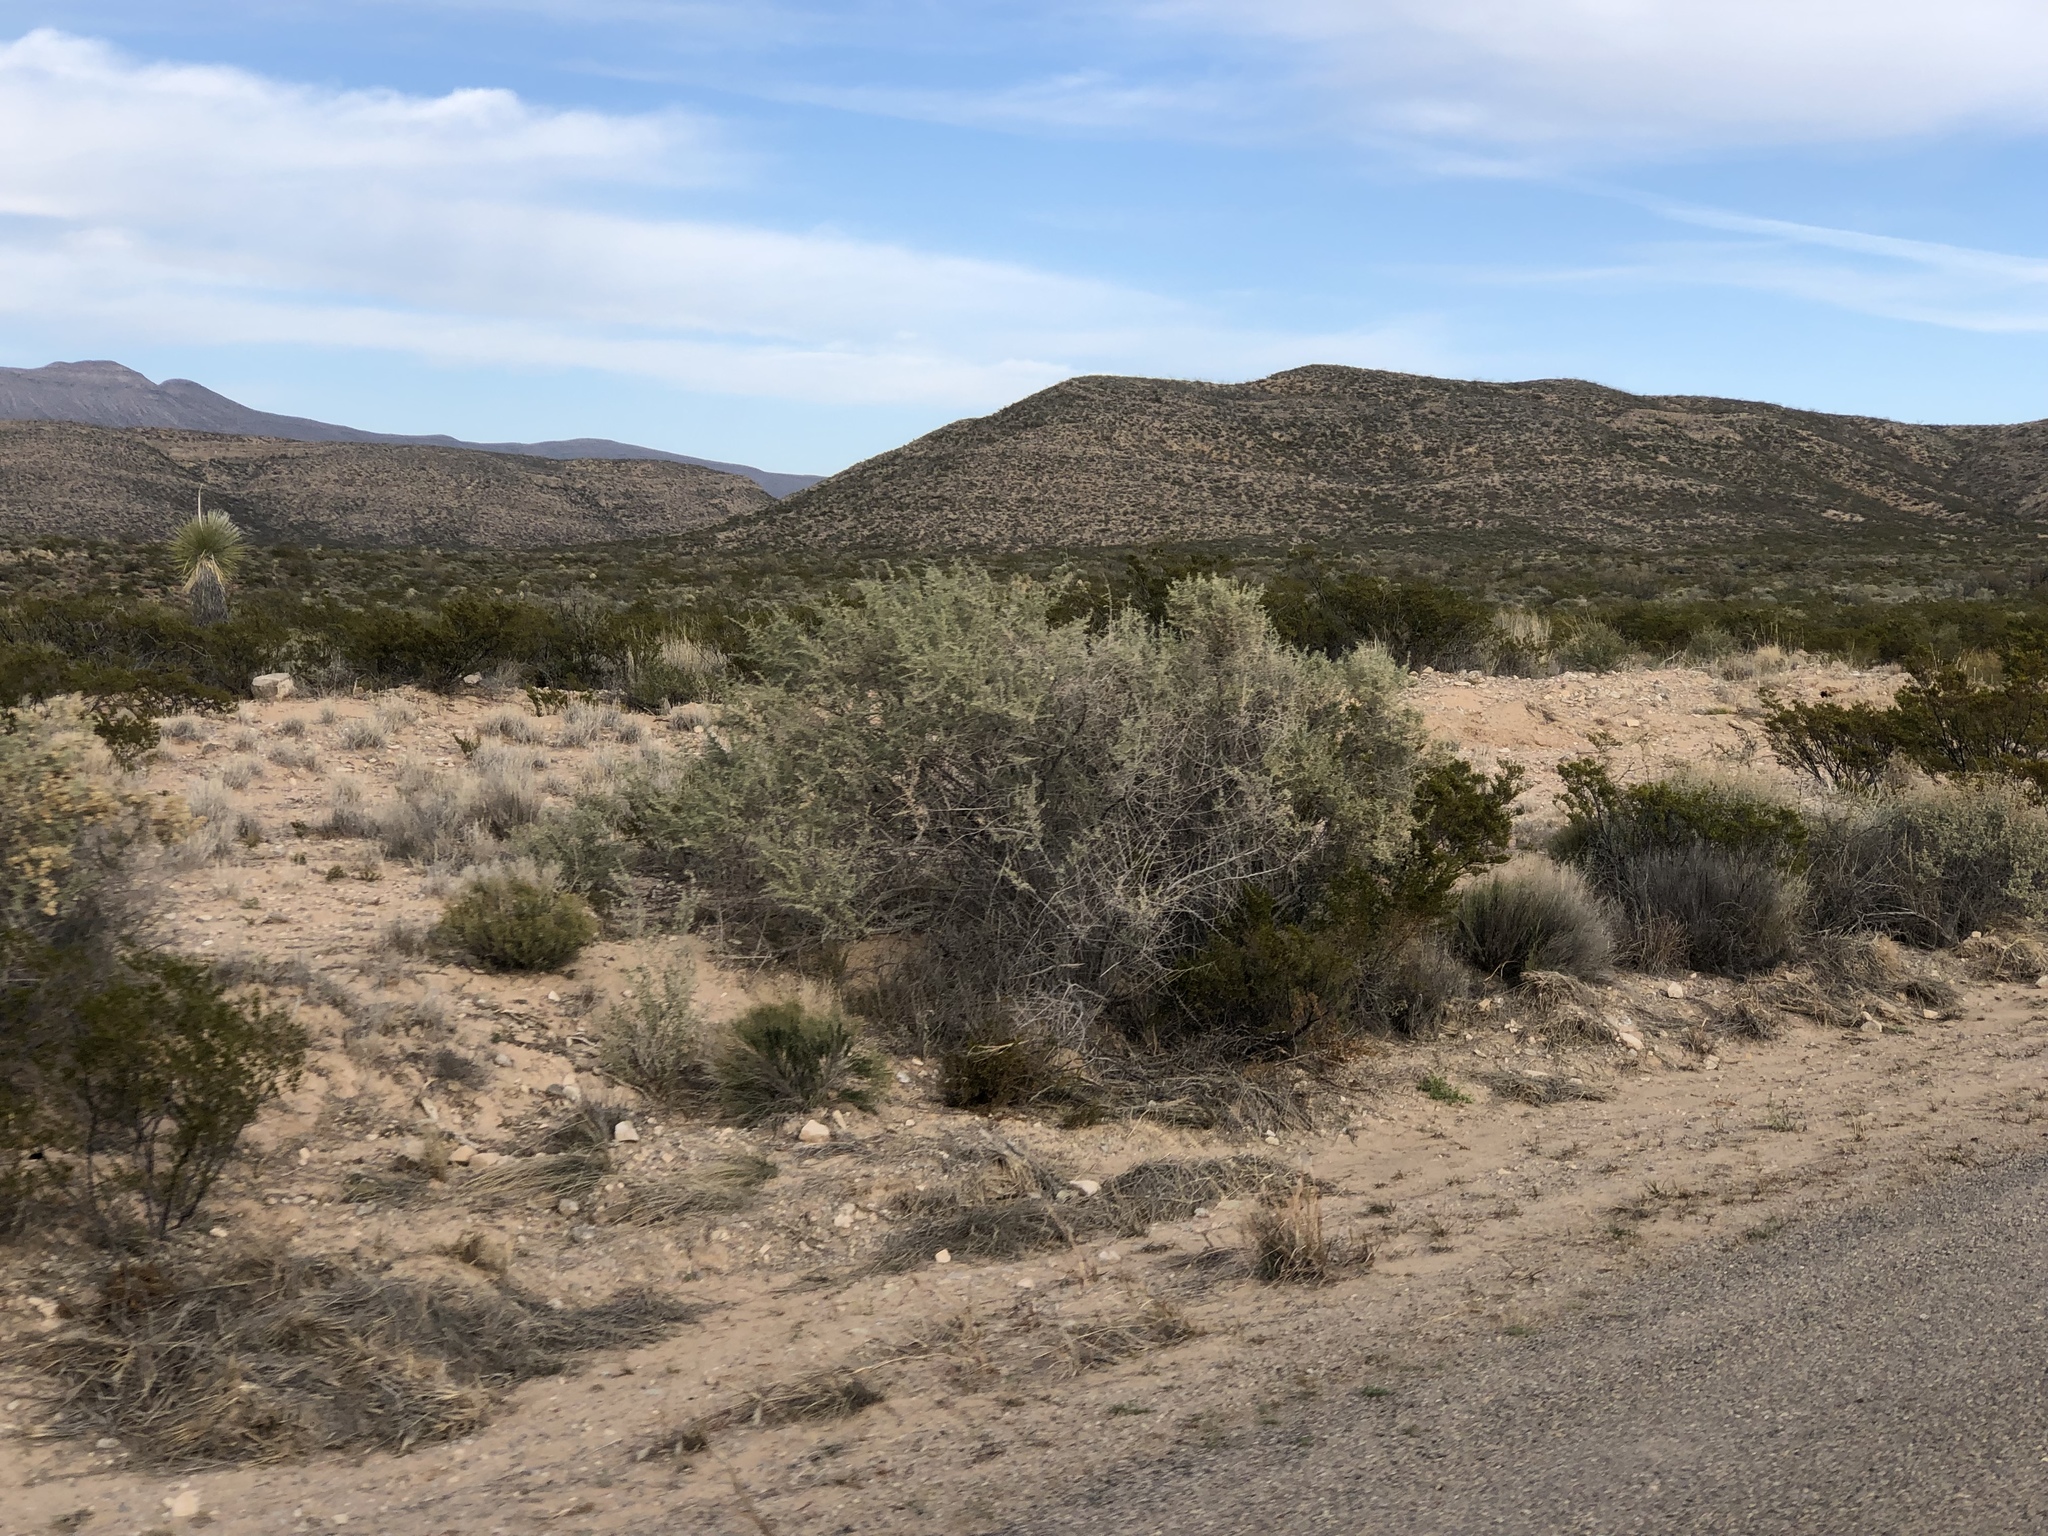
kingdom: Plantae
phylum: Tracheophyta
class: Magnoliopsida
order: Caryophyllales
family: Amaranthaceae
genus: Atriplex
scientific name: Atriplex canescens
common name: Four-wing saltbush
